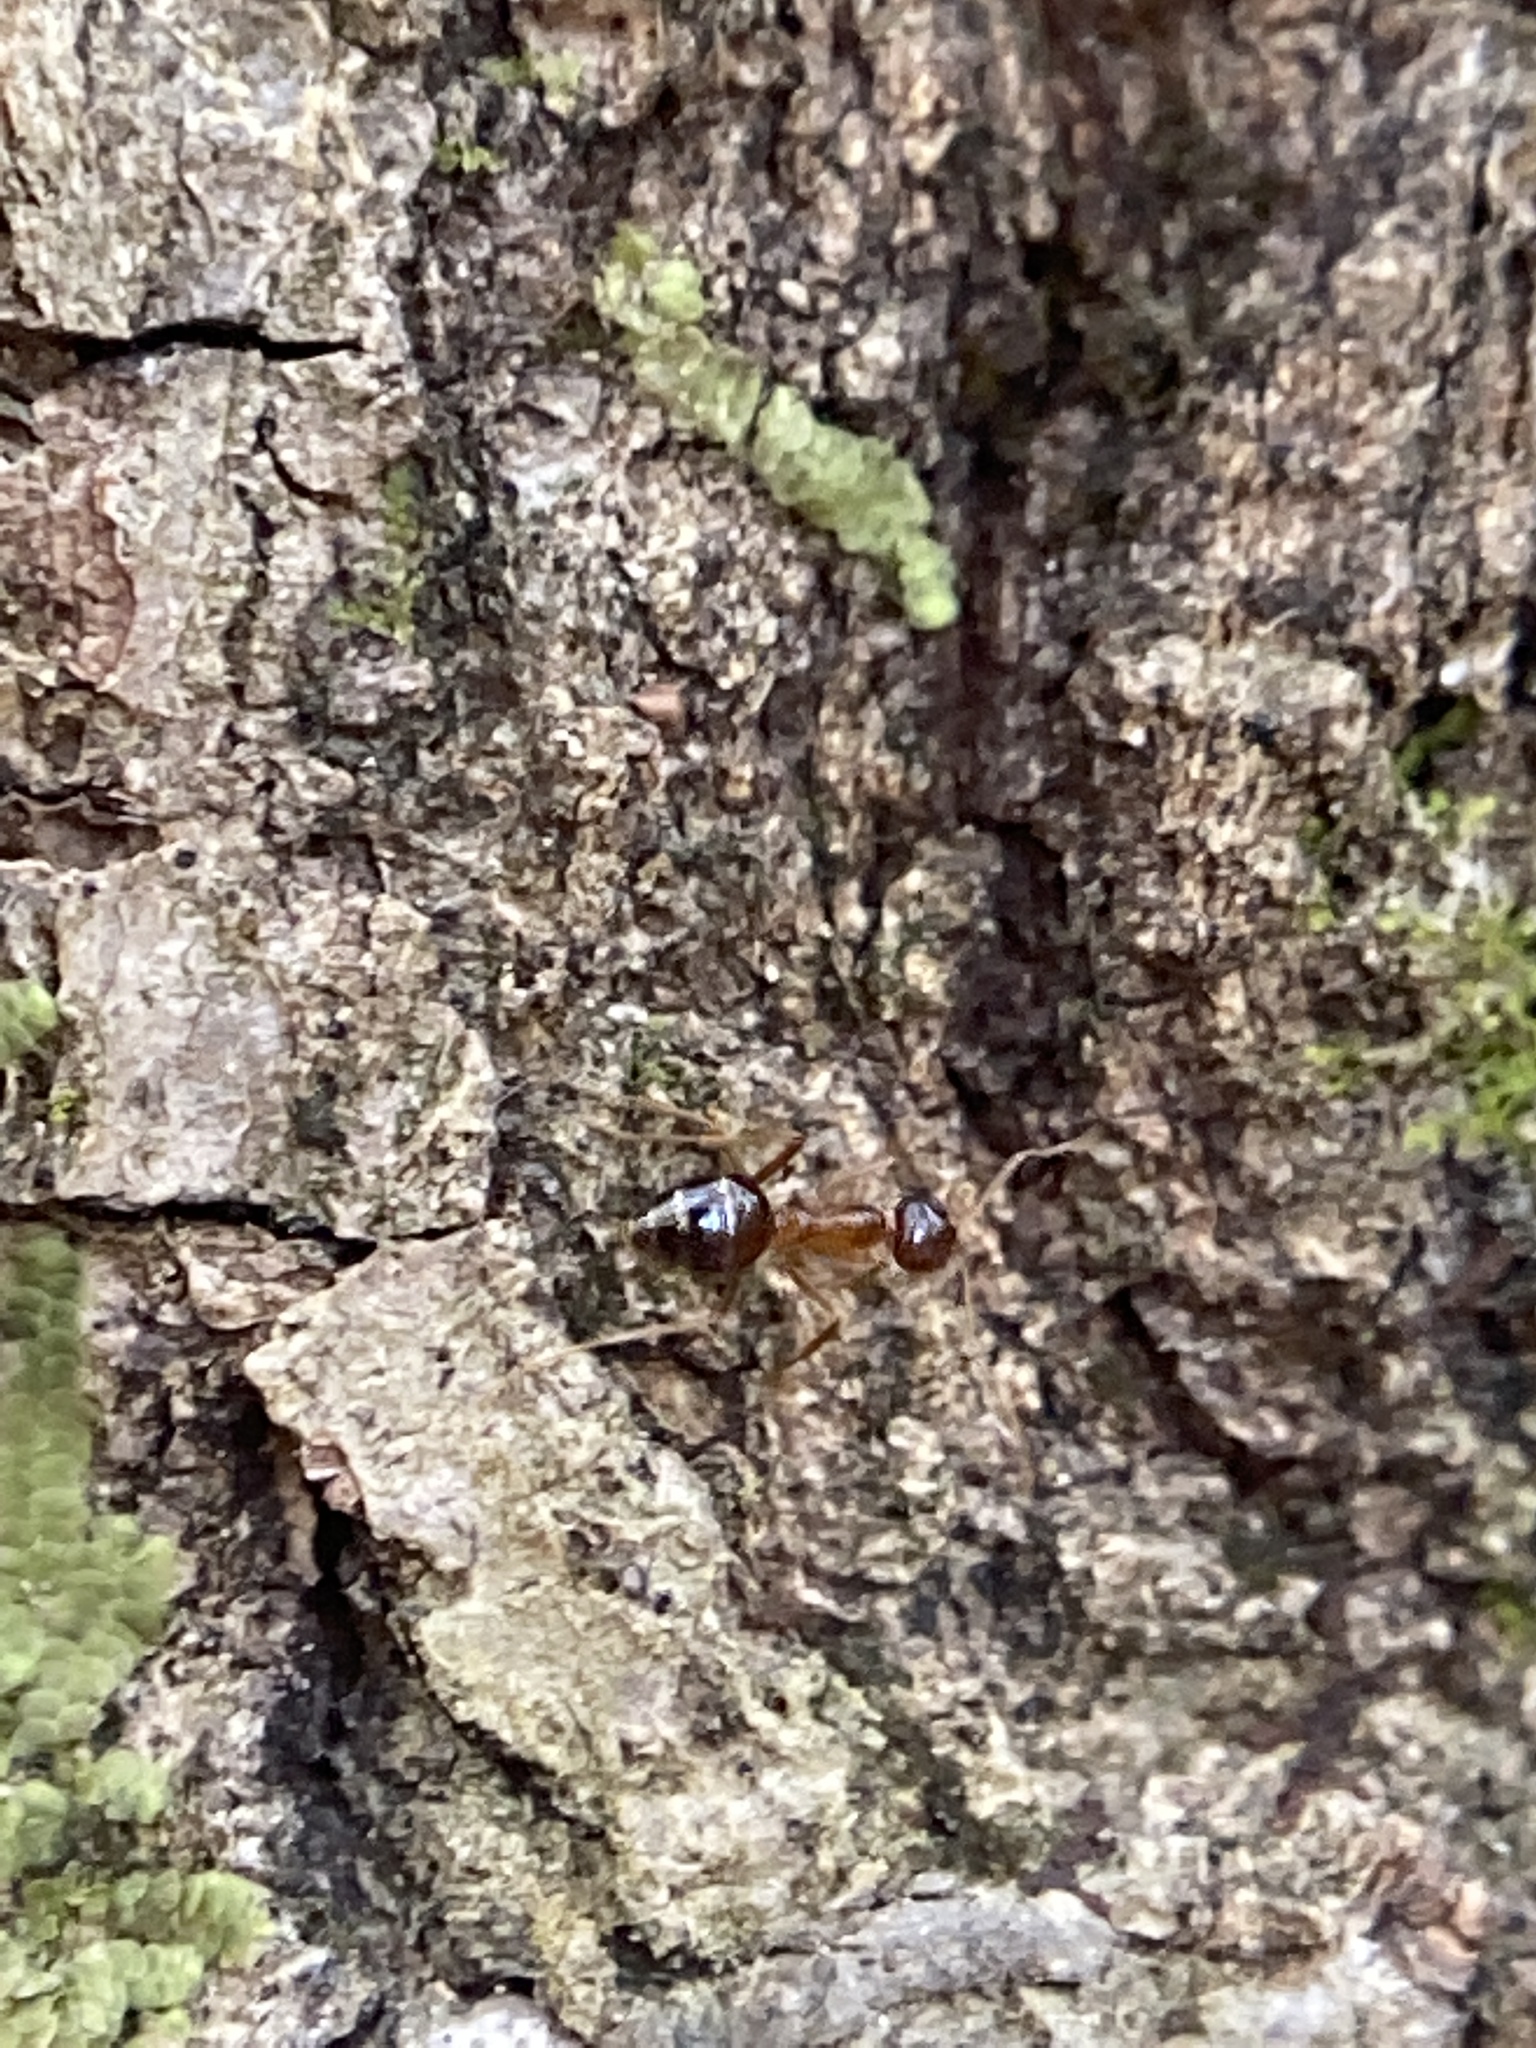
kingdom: Animalia
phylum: Arthropoda
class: Insecta
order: Hymenoptera
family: Formicidae
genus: Prenolepis
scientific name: Prenolepis imparis
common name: Small honey ant
